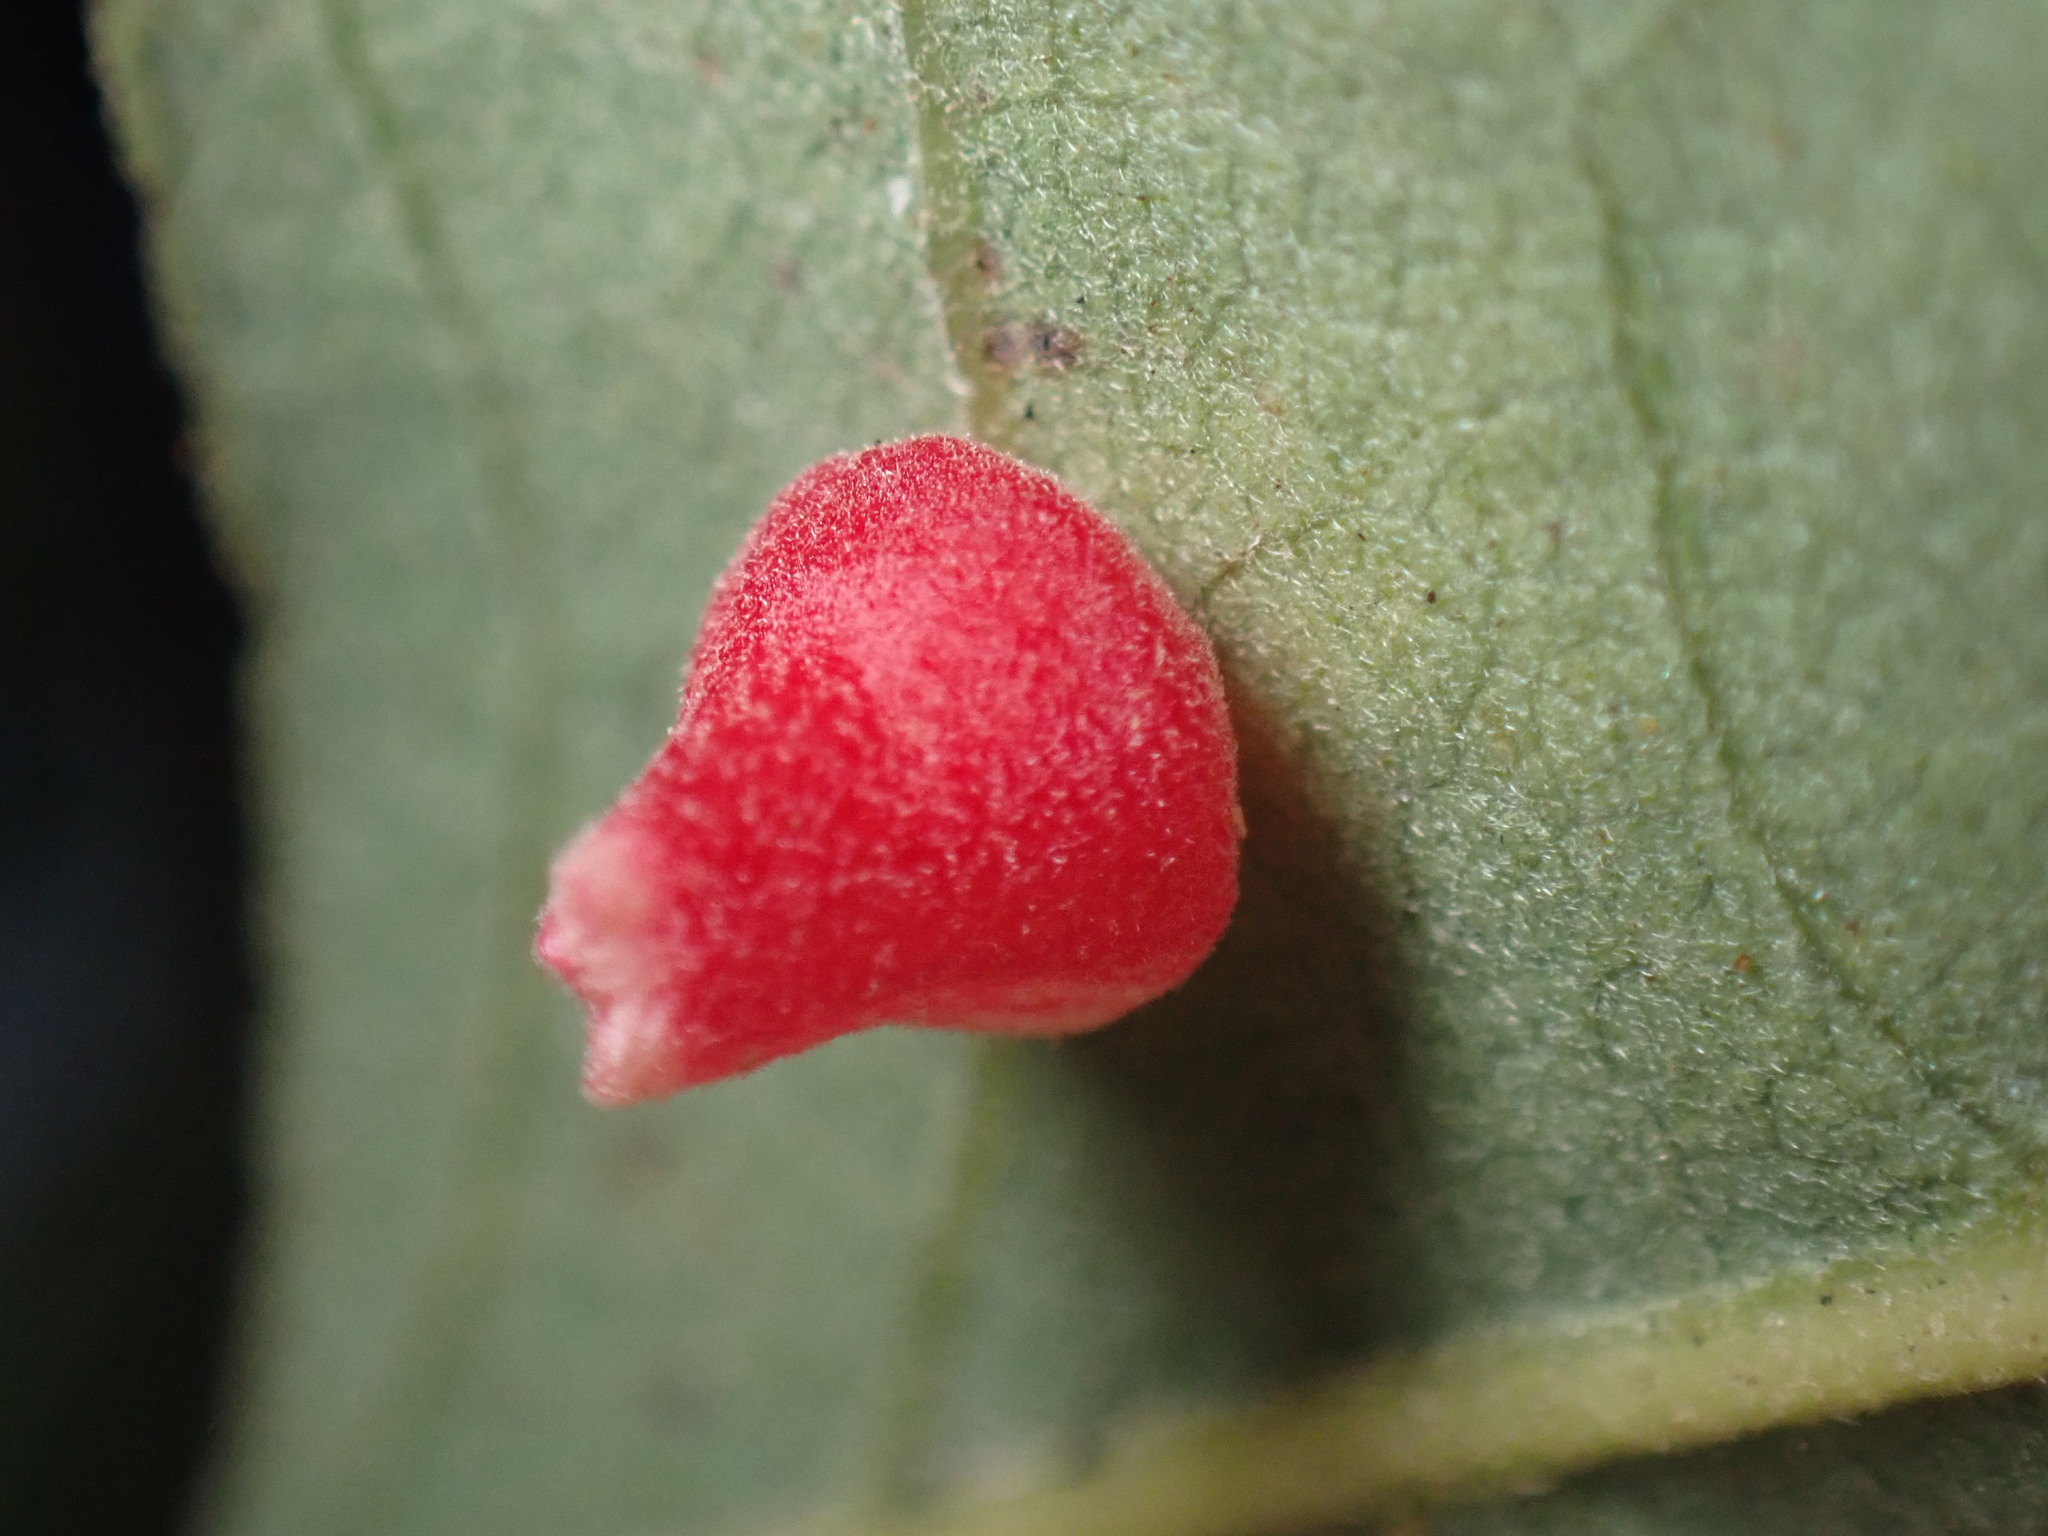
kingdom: Animalia
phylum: Arthropoda
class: Insecta
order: Hymenoptera
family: Cynipidae
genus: Andricus
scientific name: Andricus
